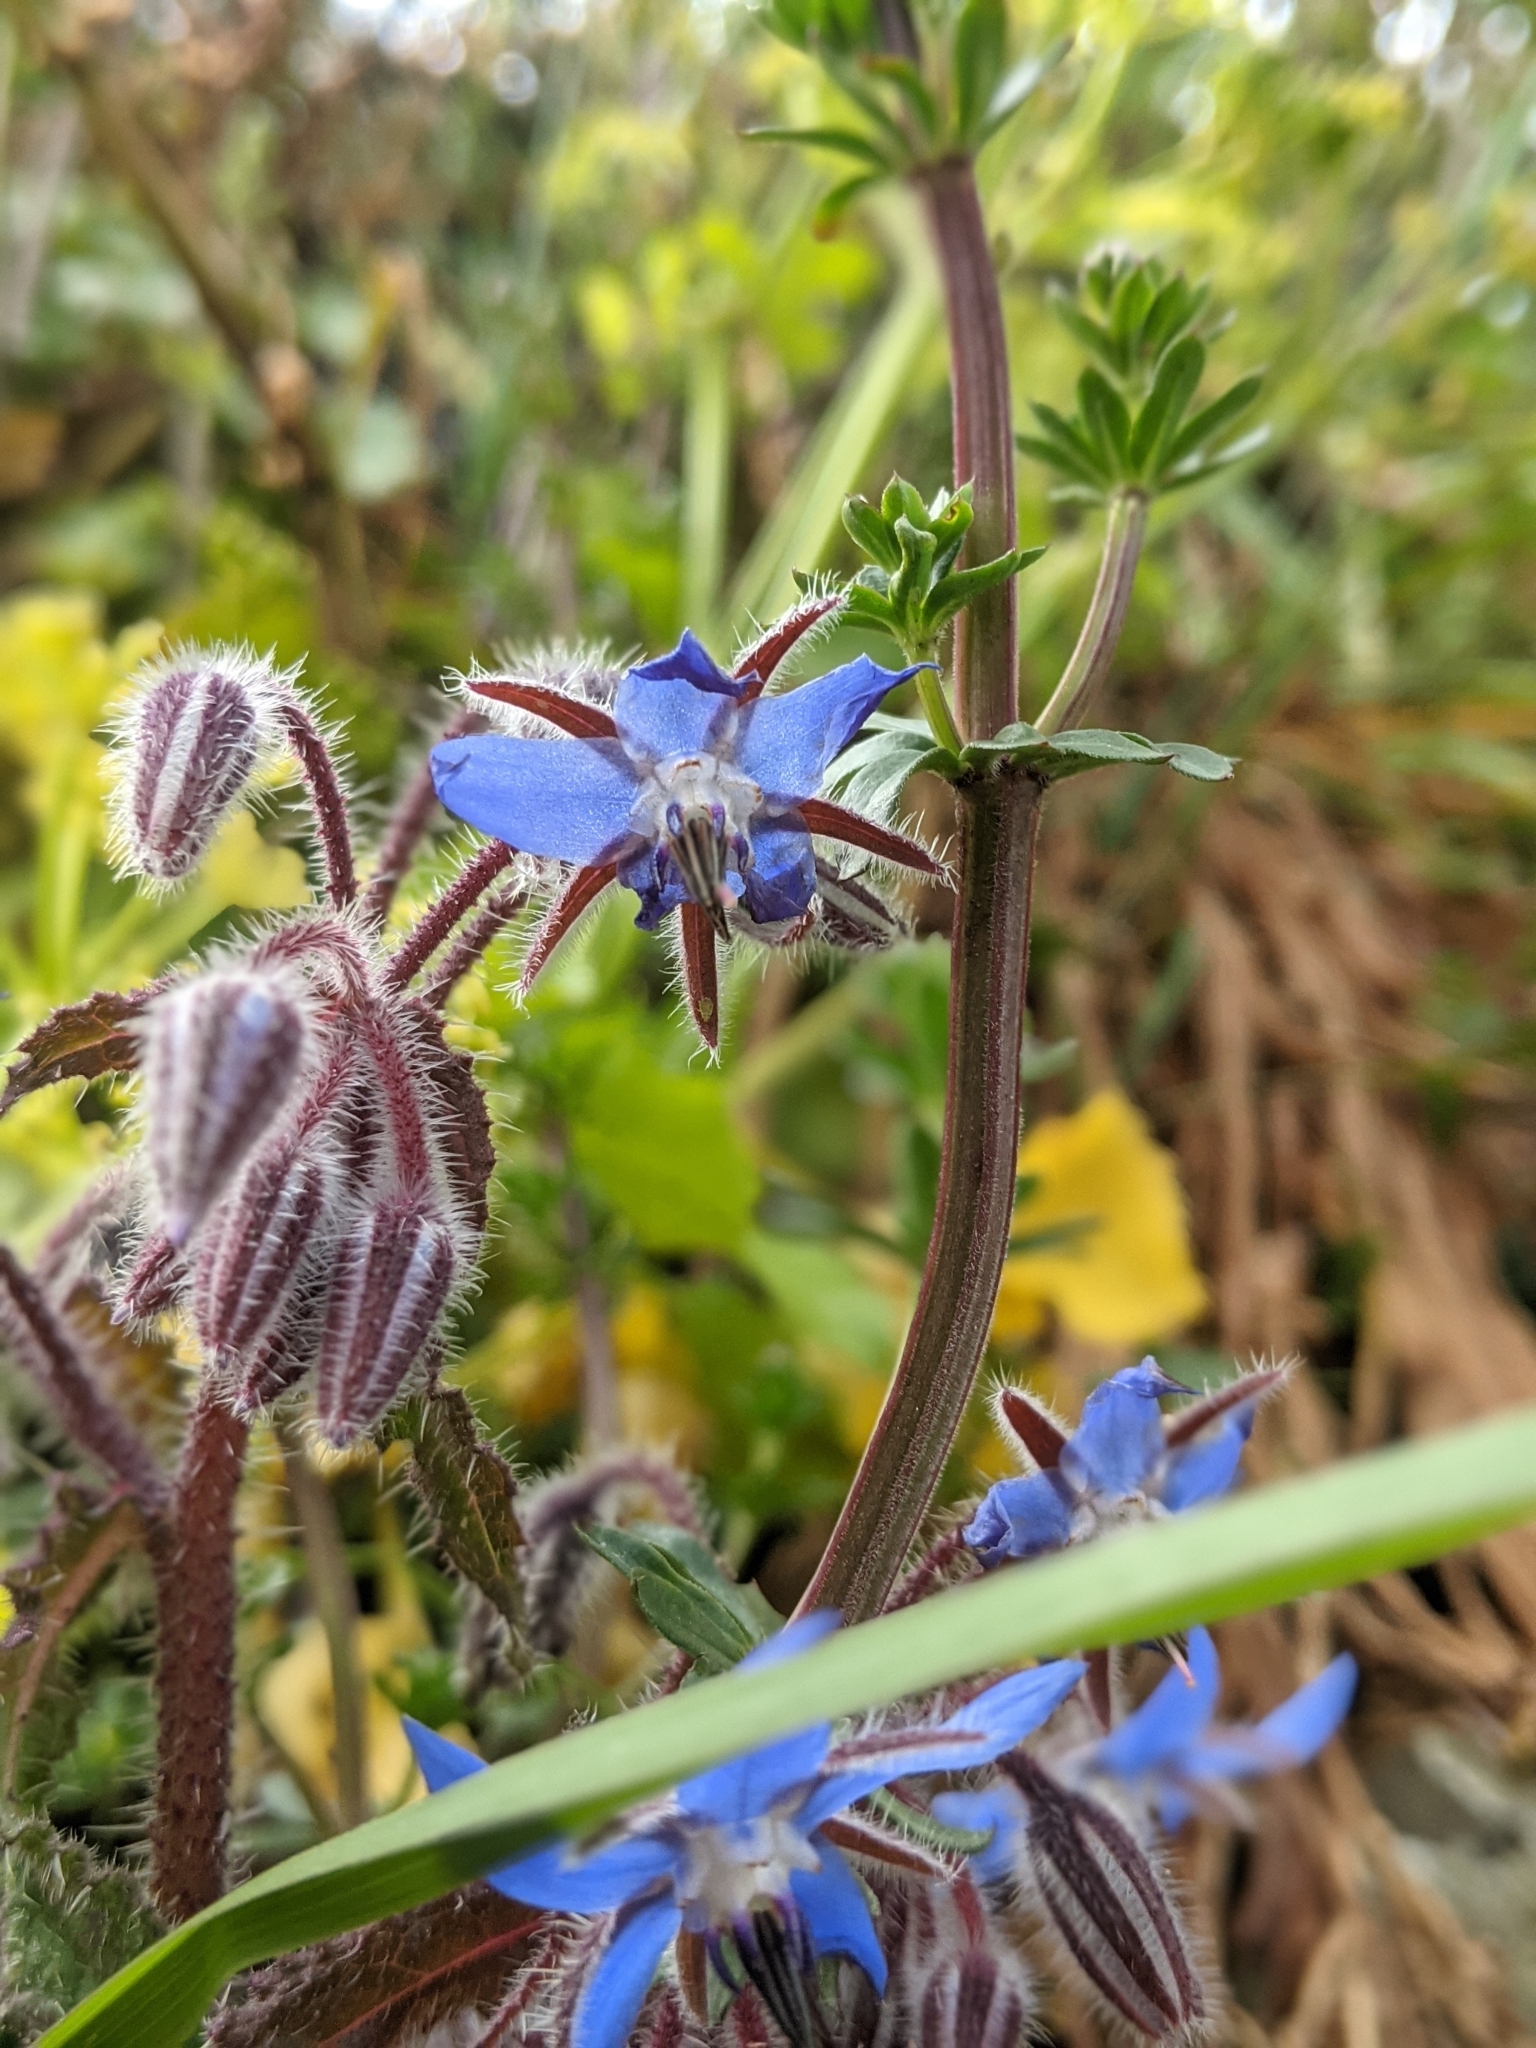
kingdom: Plantae
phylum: Tracheophyta
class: Magnoliopsida
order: Boraginales
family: Boraginaceae
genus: Borago
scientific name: Borago officinalis
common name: Borage
